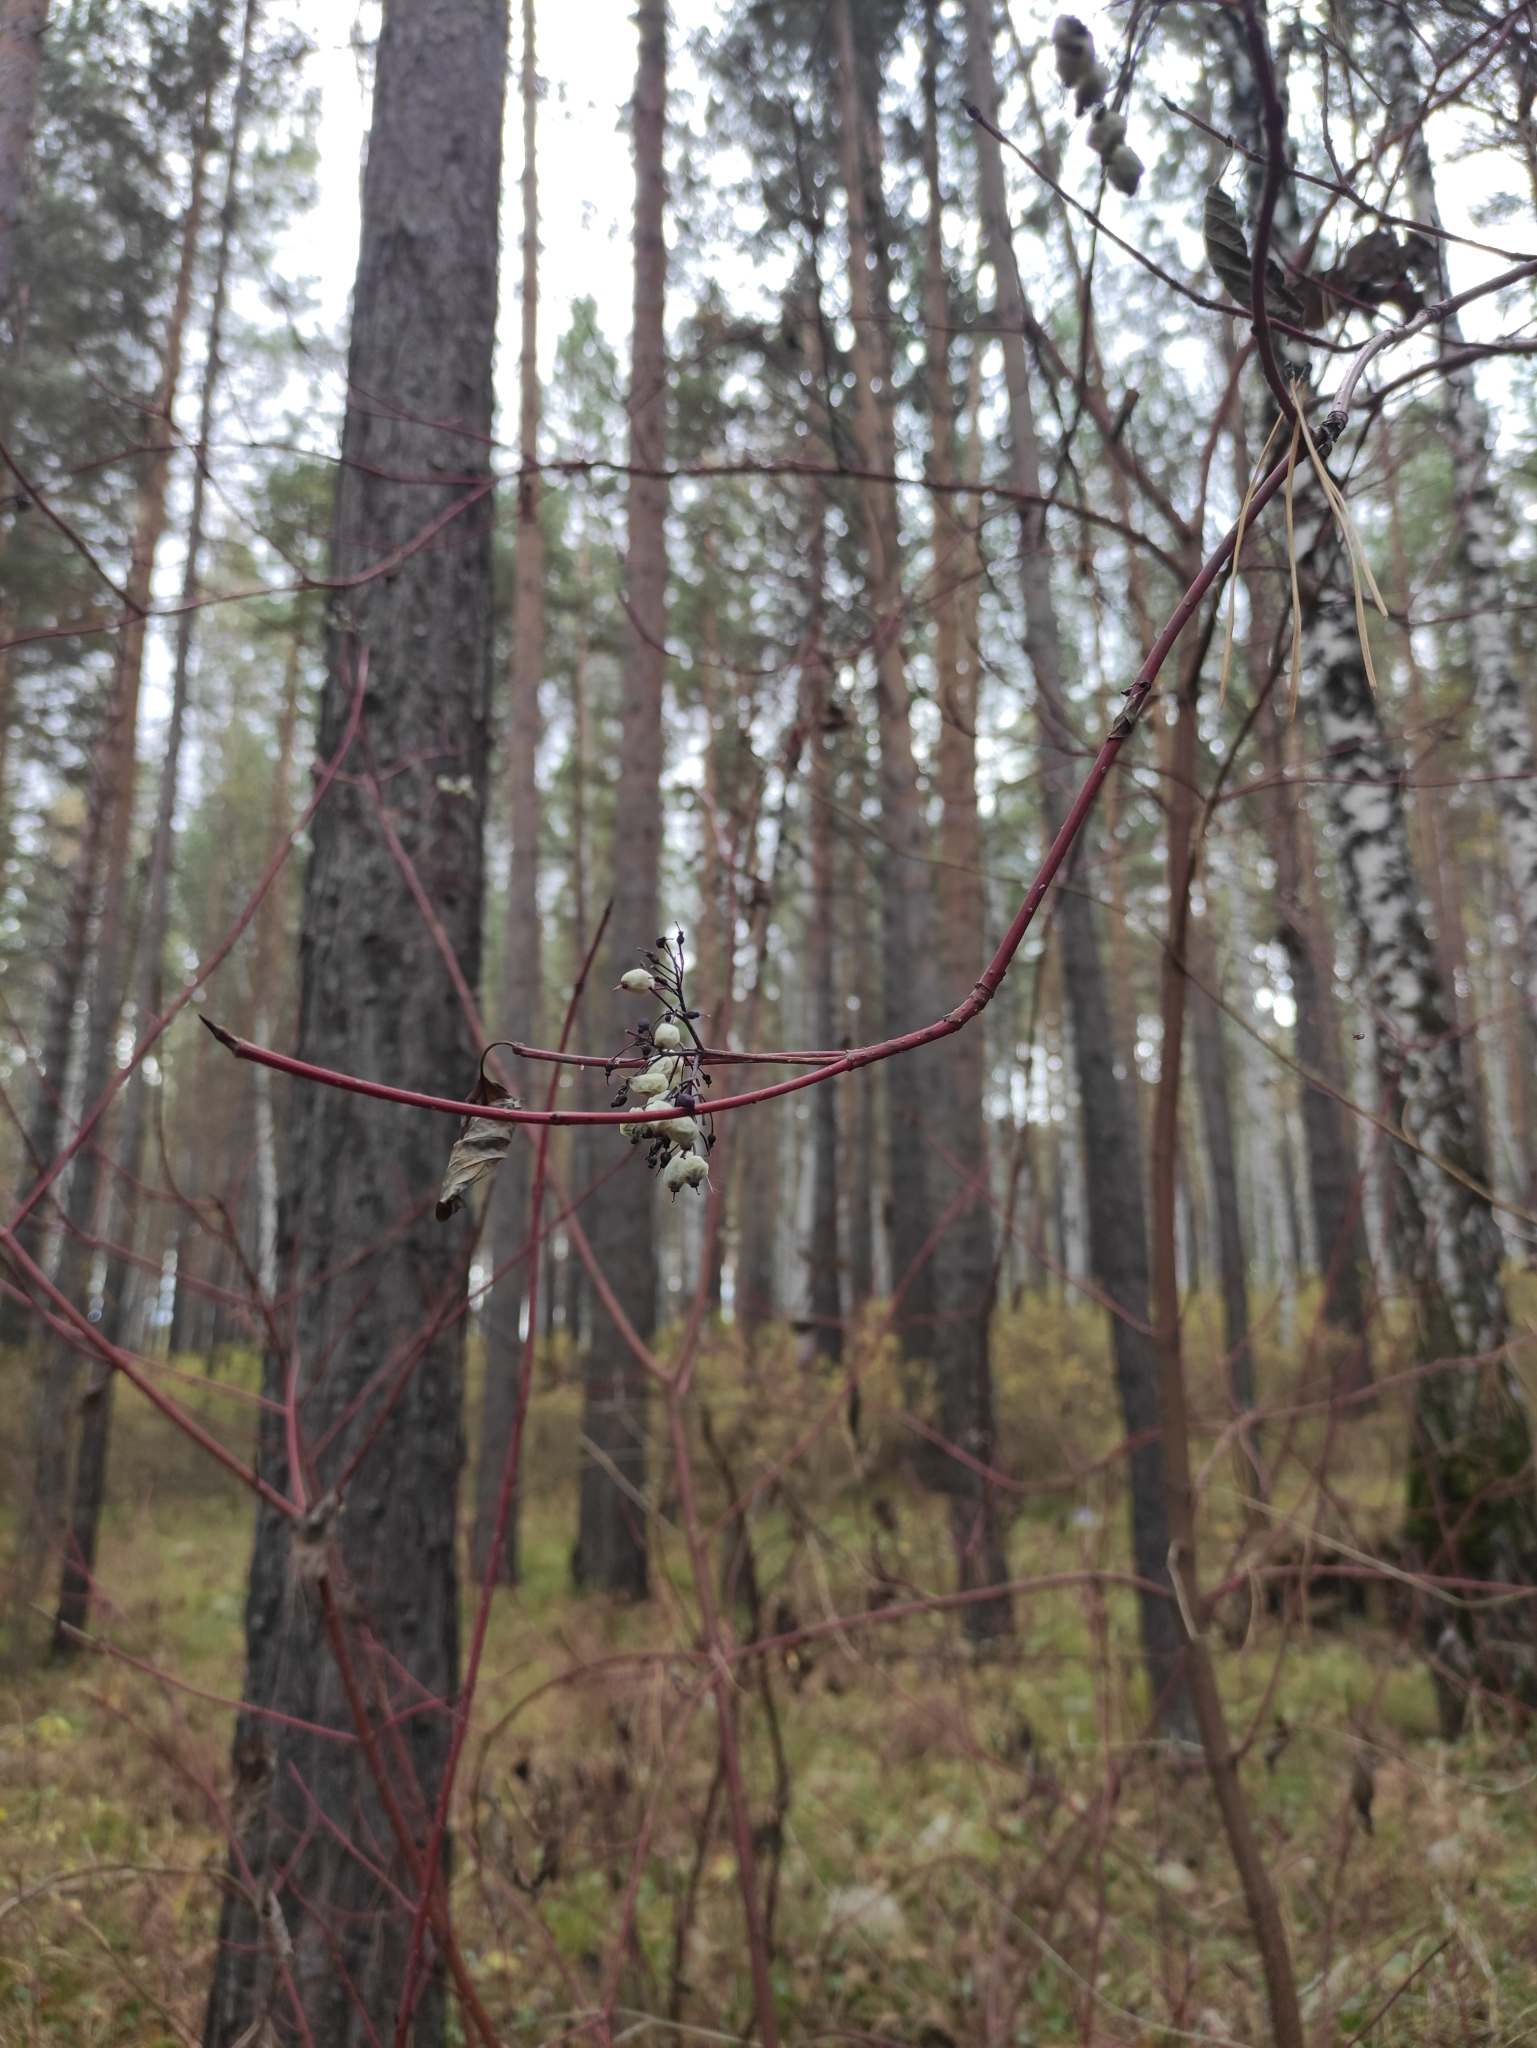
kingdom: Plantae
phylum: Tracheophyta
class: Magnoliopsida
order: Cornales
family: Cornaceae
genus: Cornus
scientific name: Cornus alba
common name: White dogwood
